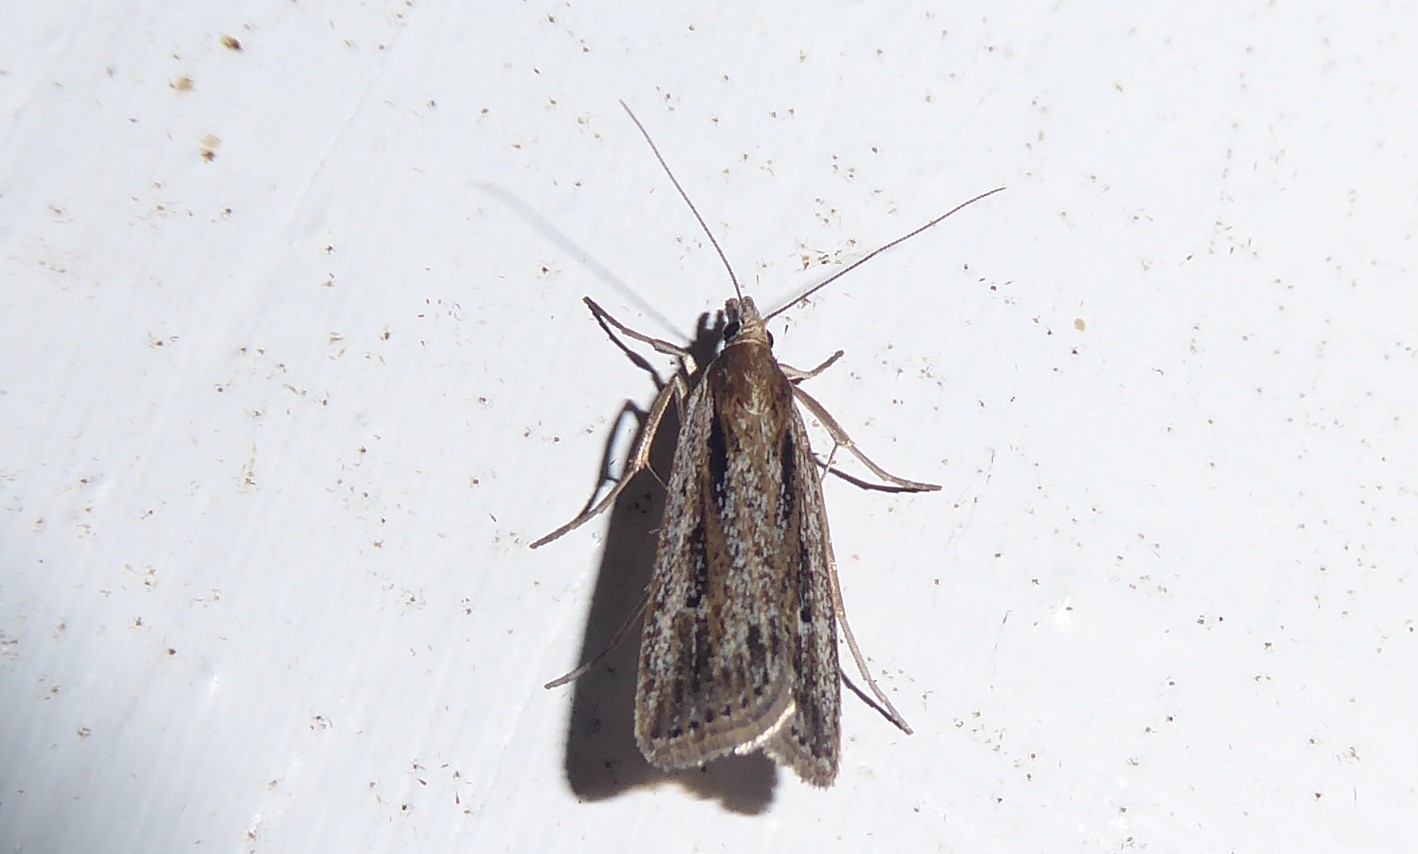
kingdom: Animalia
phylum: Arthropoda
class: Insecta
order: Lepidoptera
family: Crambidae
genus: Eudonia
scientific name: Eudonia sabulosella
